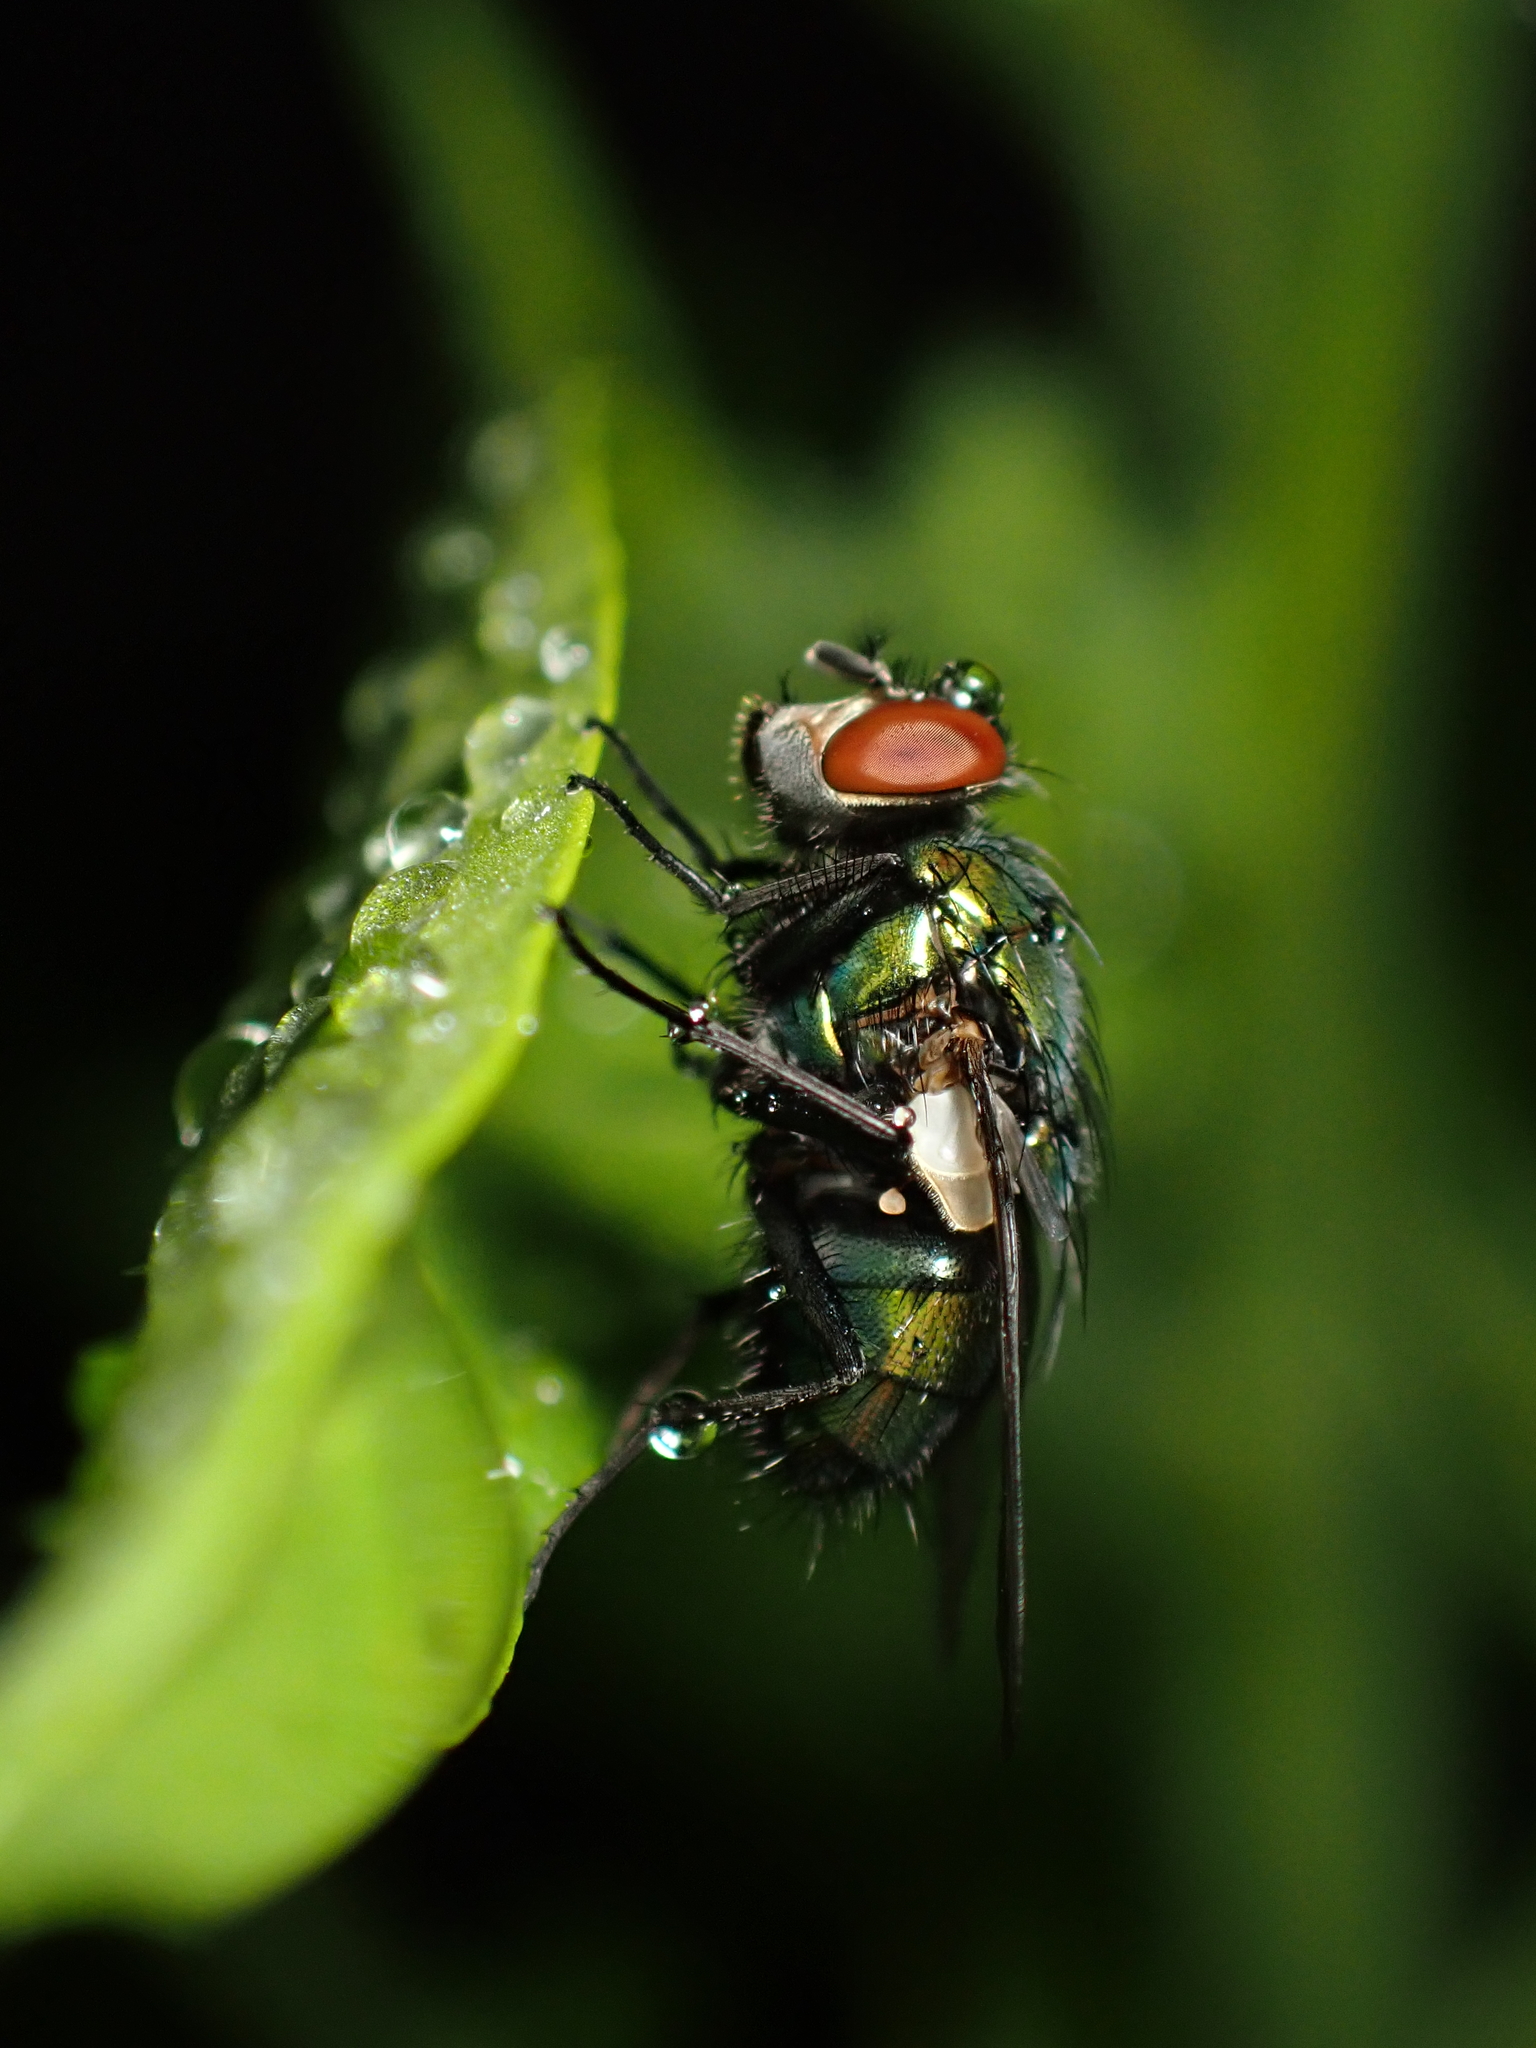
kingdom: Animalia
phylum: Arthropoda
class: Insecta
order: Diptera
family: Calliphoridae
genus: Lucilia
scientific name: Lucilia sericata
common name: Blow fly
